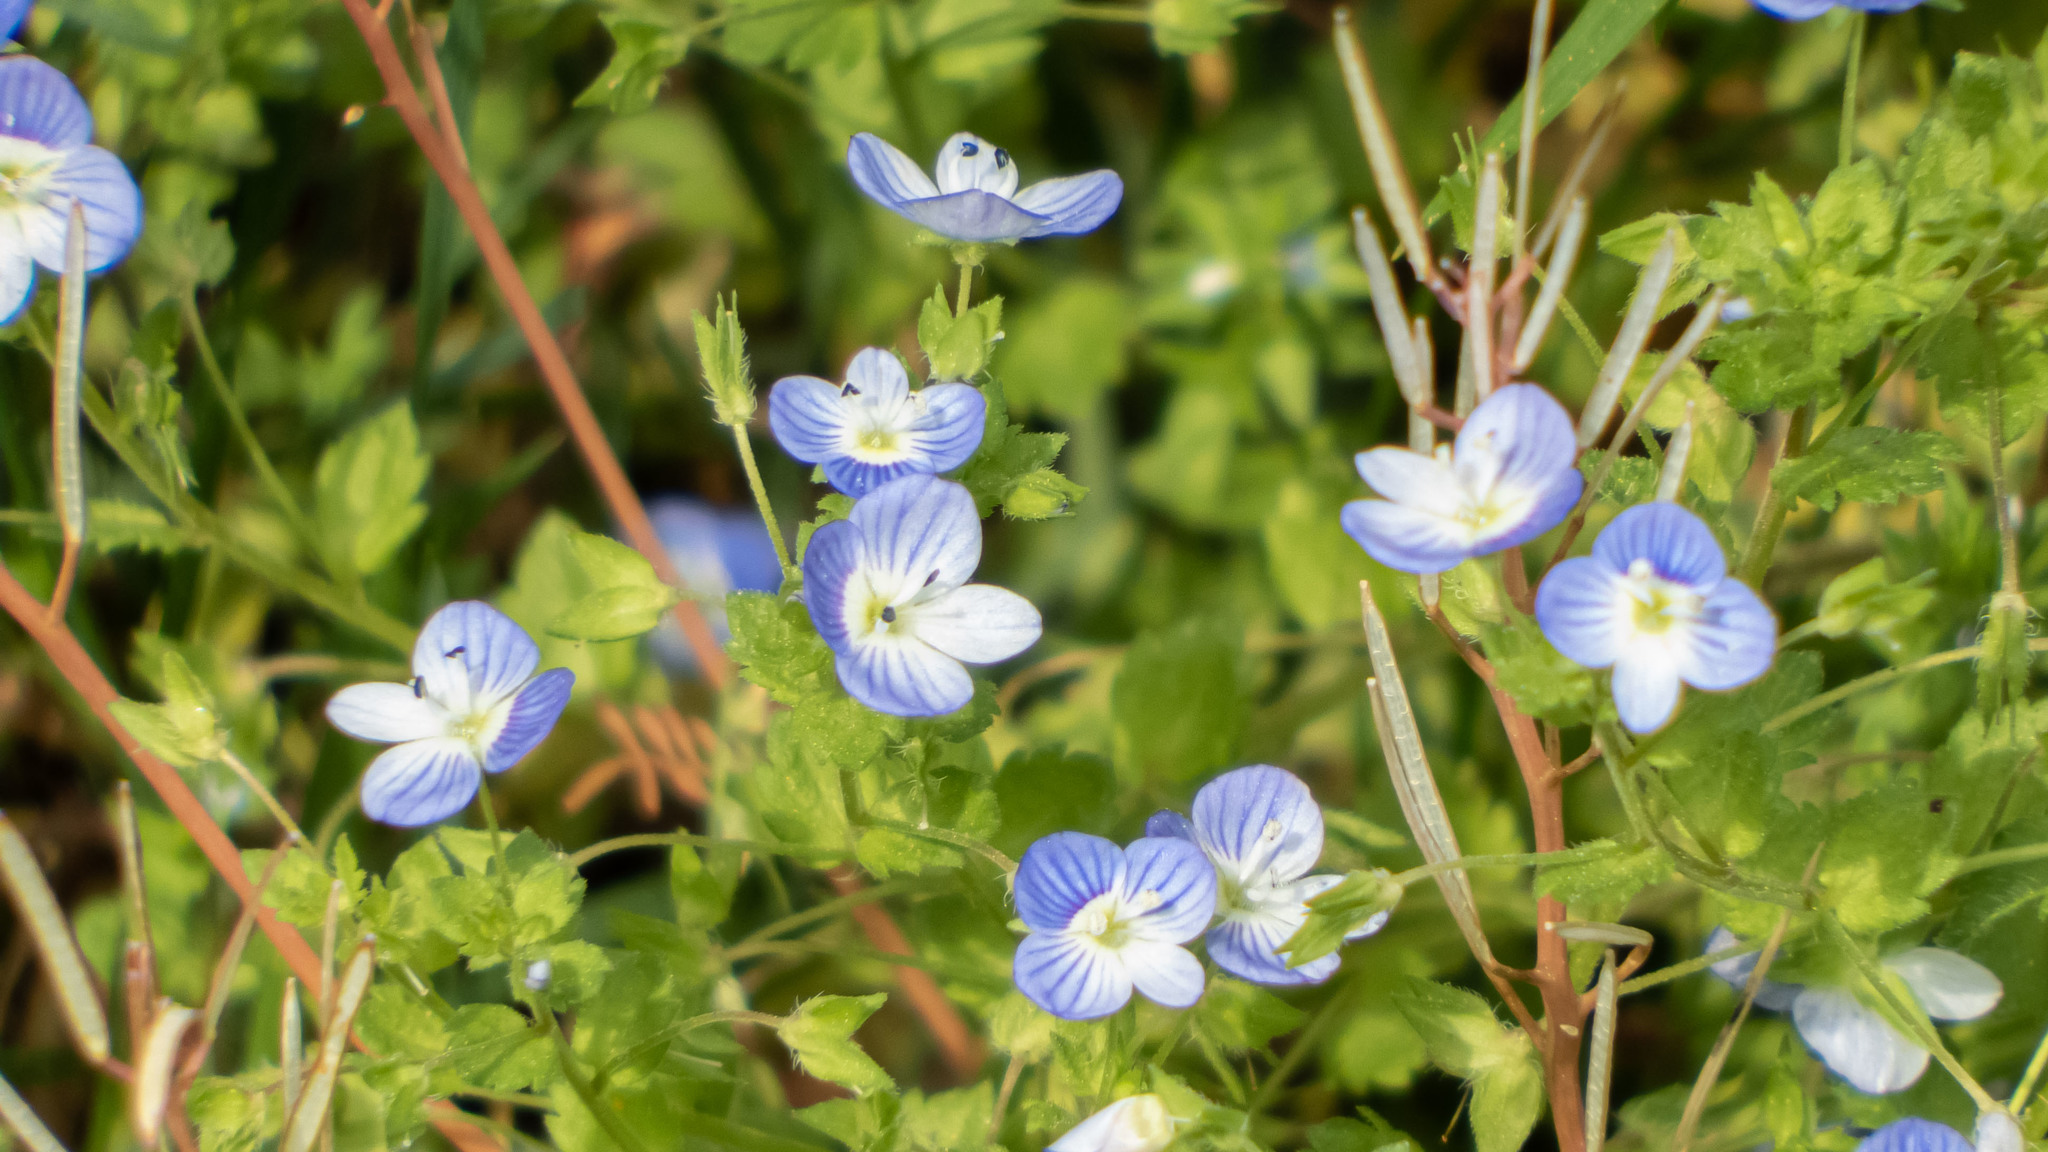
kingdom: Plantae
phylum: Tracheophyta
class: Magnoliopsida
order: Lamiales
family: Plantaginaceae
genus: Veronica
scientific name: Veronica persica
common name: Common field-speedwell
